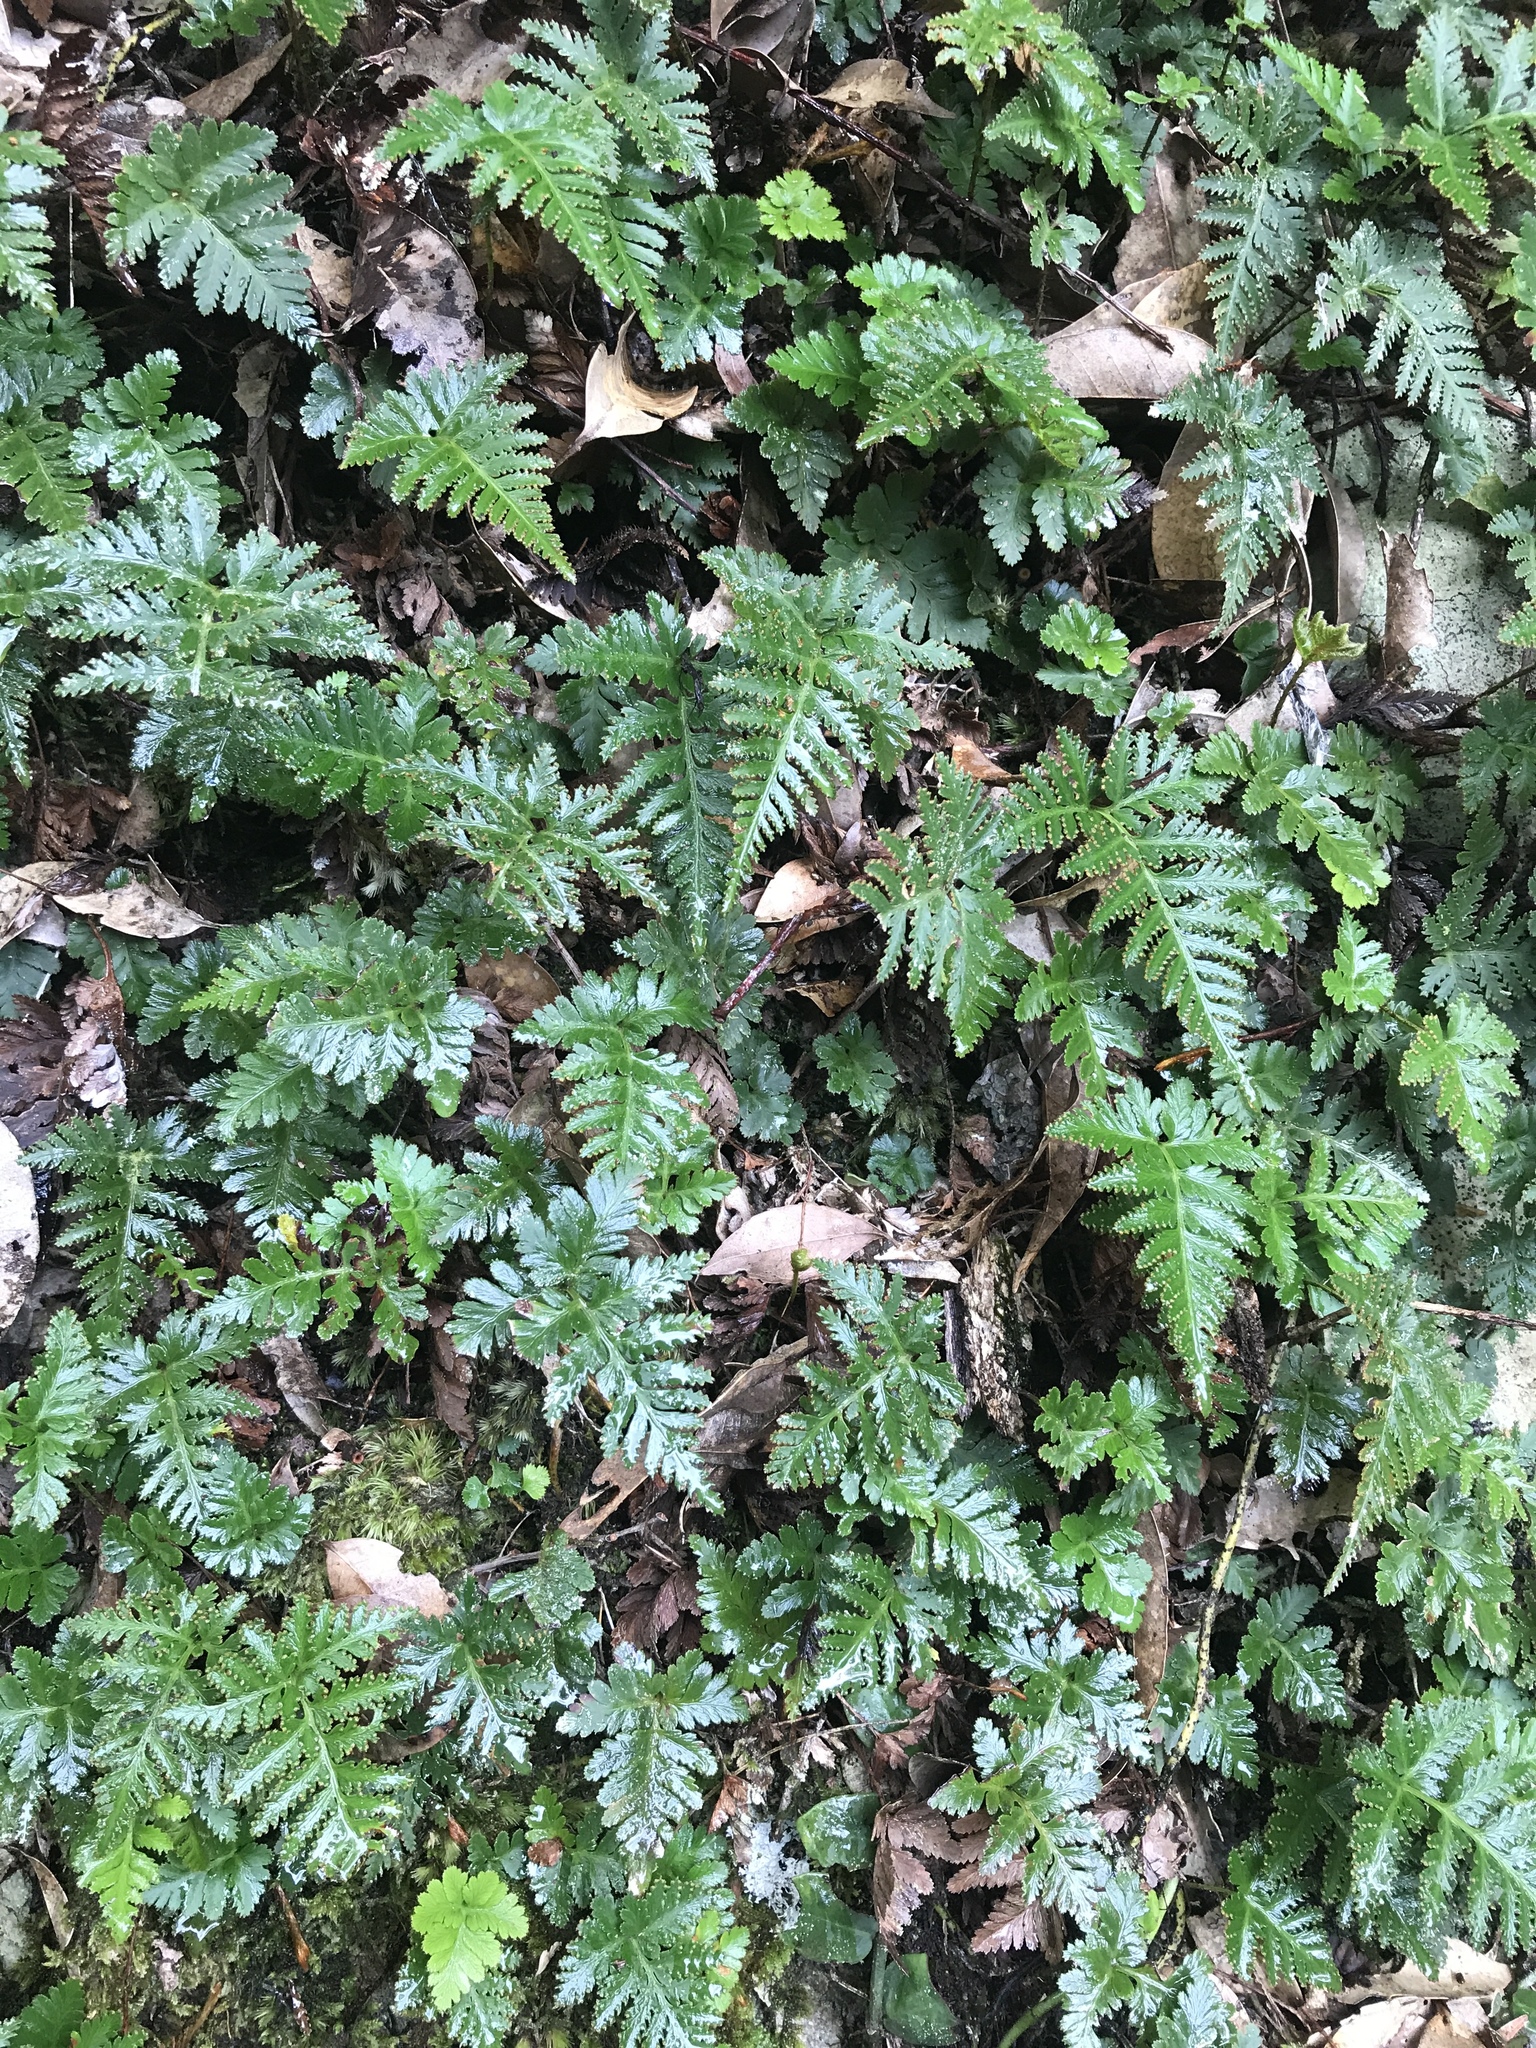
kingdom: Plantae
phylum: Tracheophyta
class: Polypodiopsida
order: Polypodiales
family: Davalliaceae
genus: Davallia
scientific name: Davallia repens
